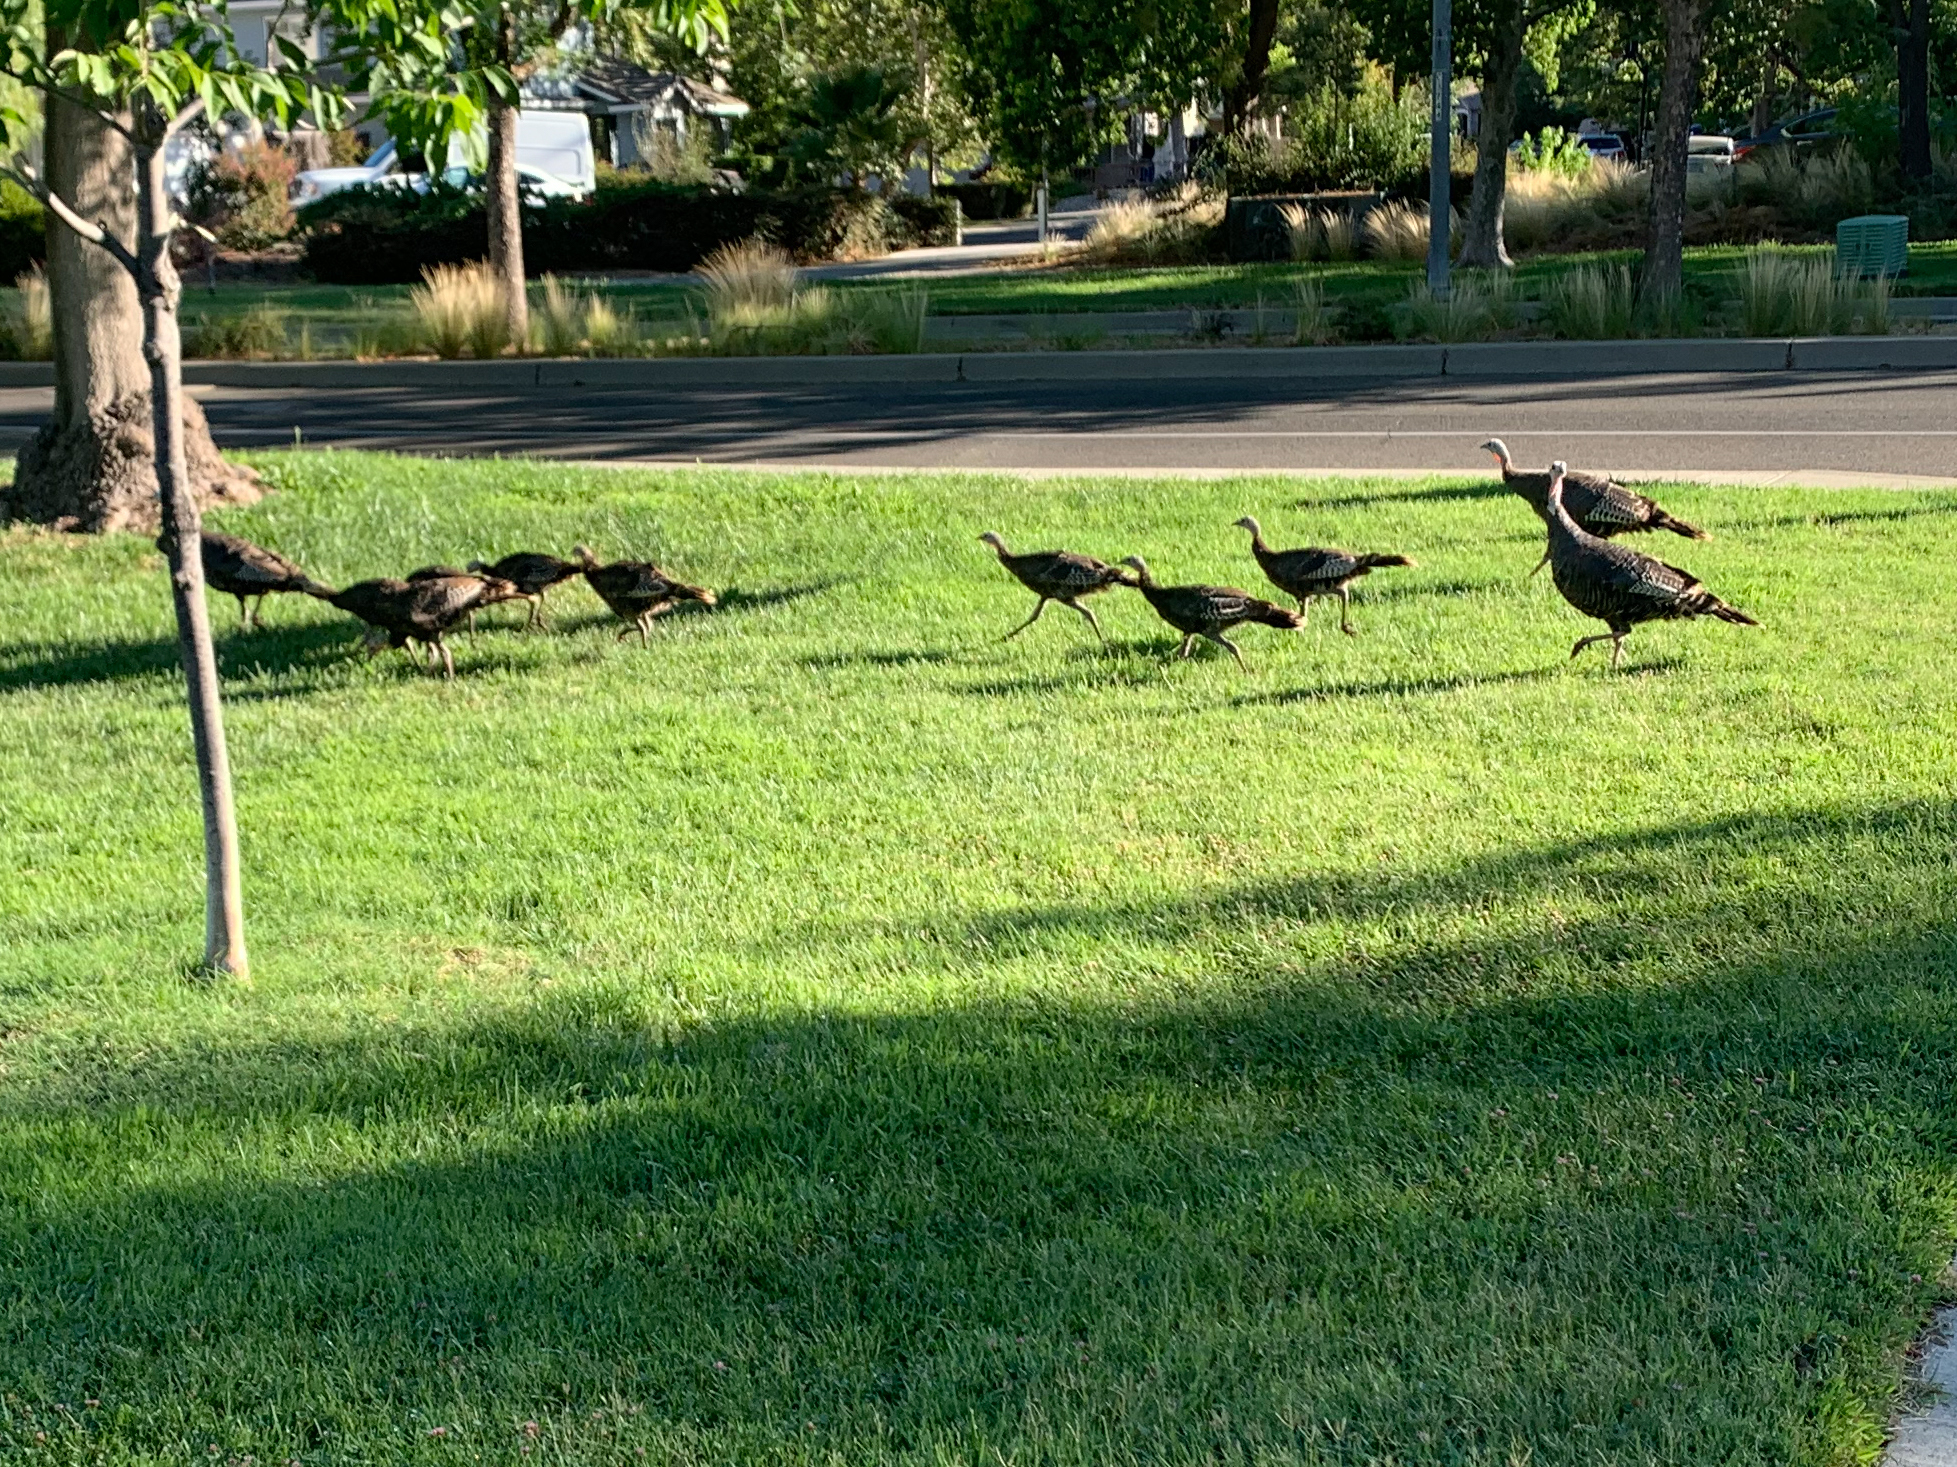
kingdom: Animalia
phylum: Chordata
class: Aves
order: Galliformes
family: Phasianidae
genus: Meleagris
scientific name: Meleagris gallopavo
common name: Wild turkey
